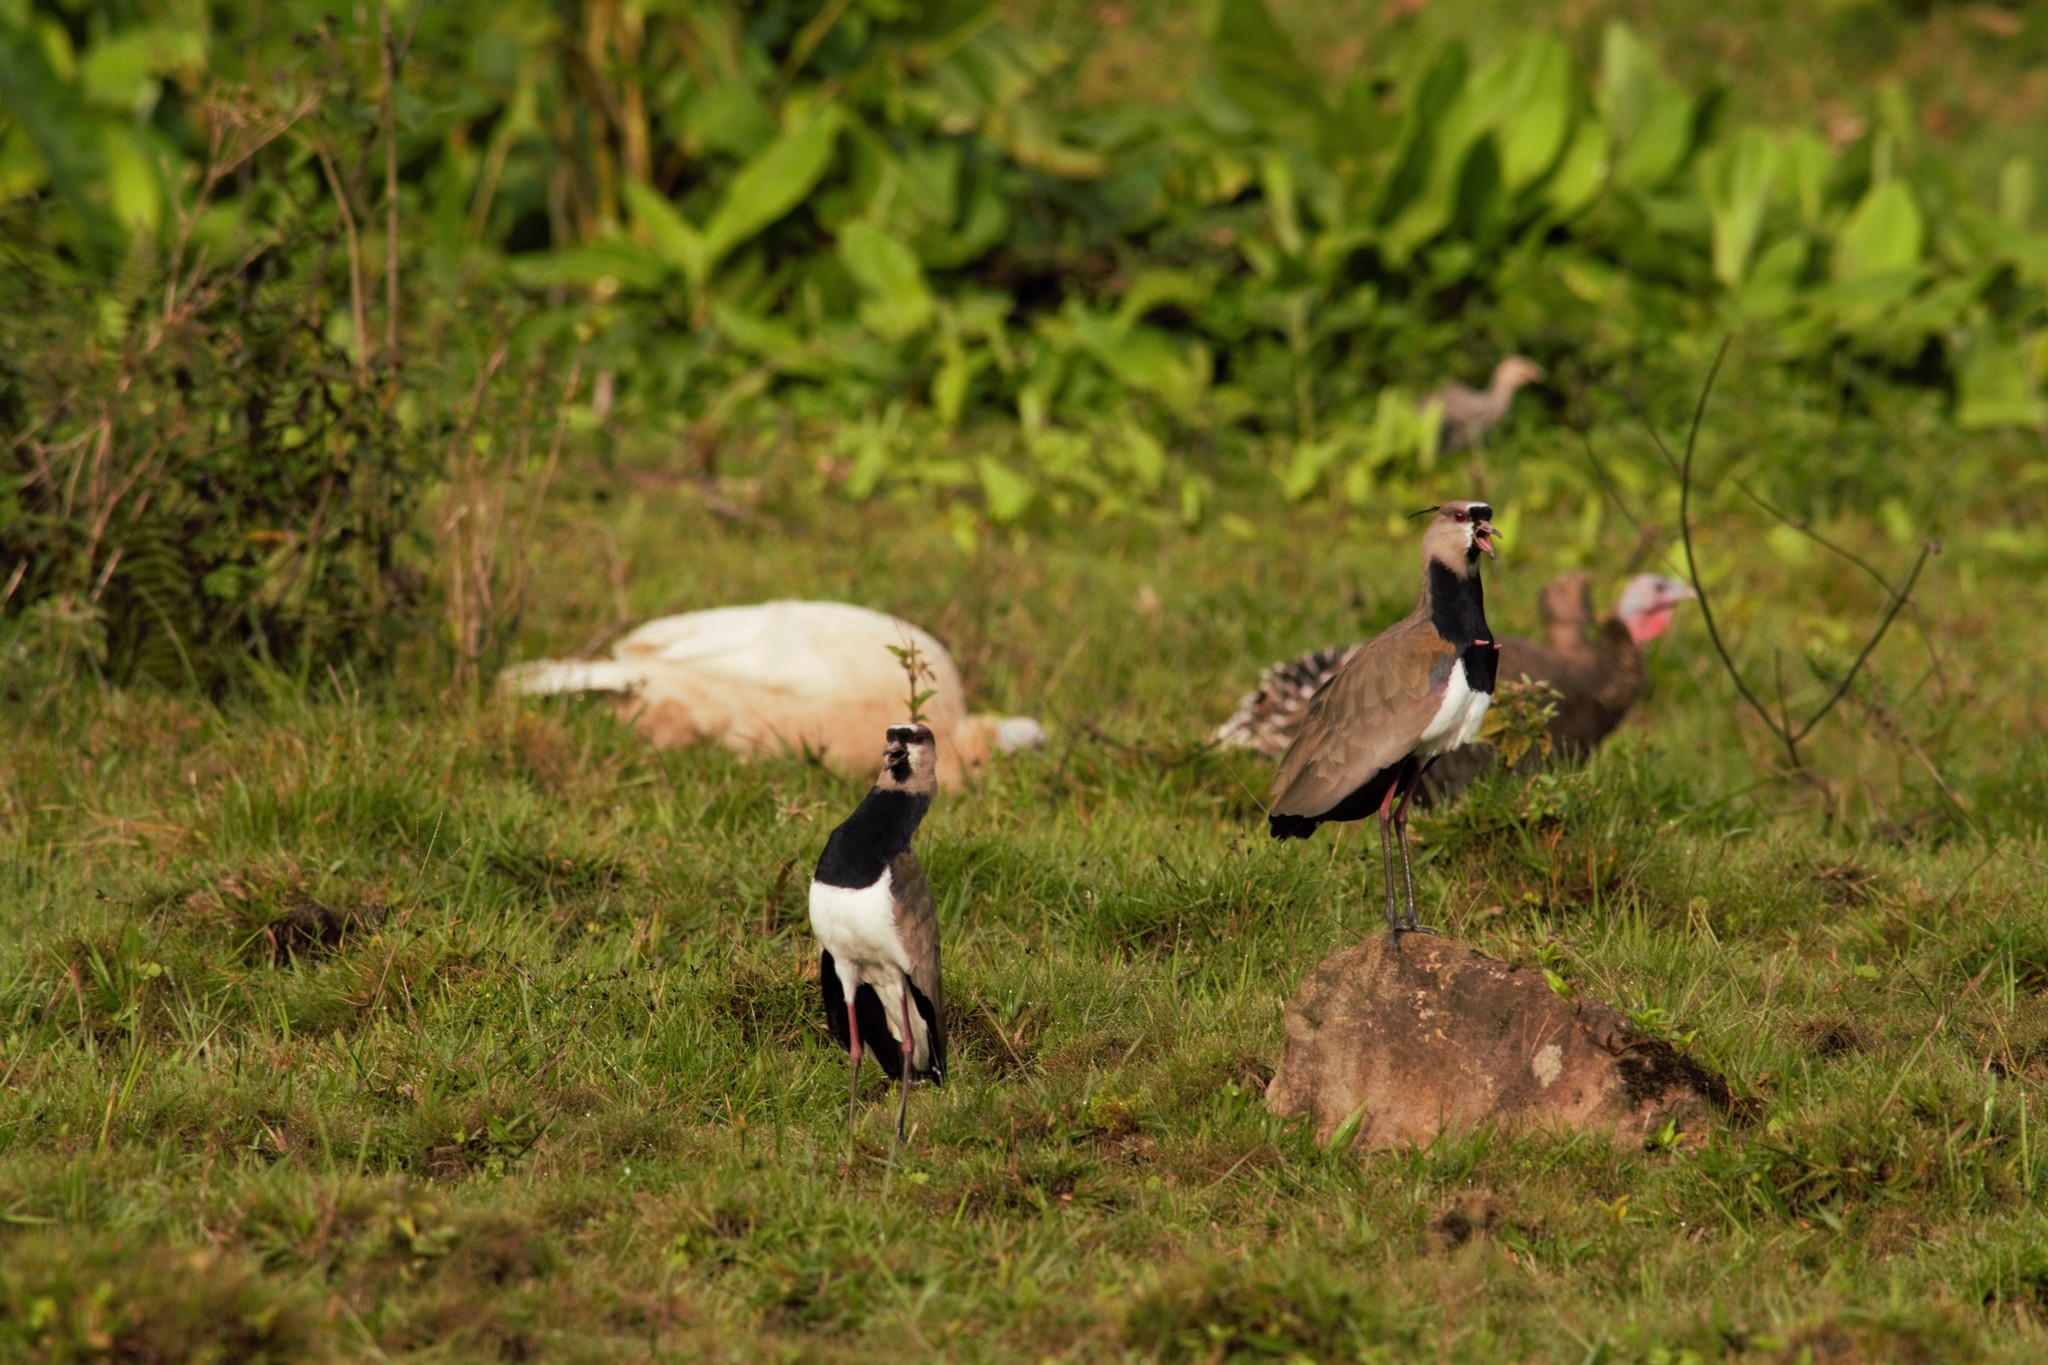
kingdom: Animalia
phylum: Chordata
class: Aves
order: Charadriiformes
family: Charadriidae
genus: Vanellus
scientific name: Vanellus chilensis
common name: Southern lapwing
